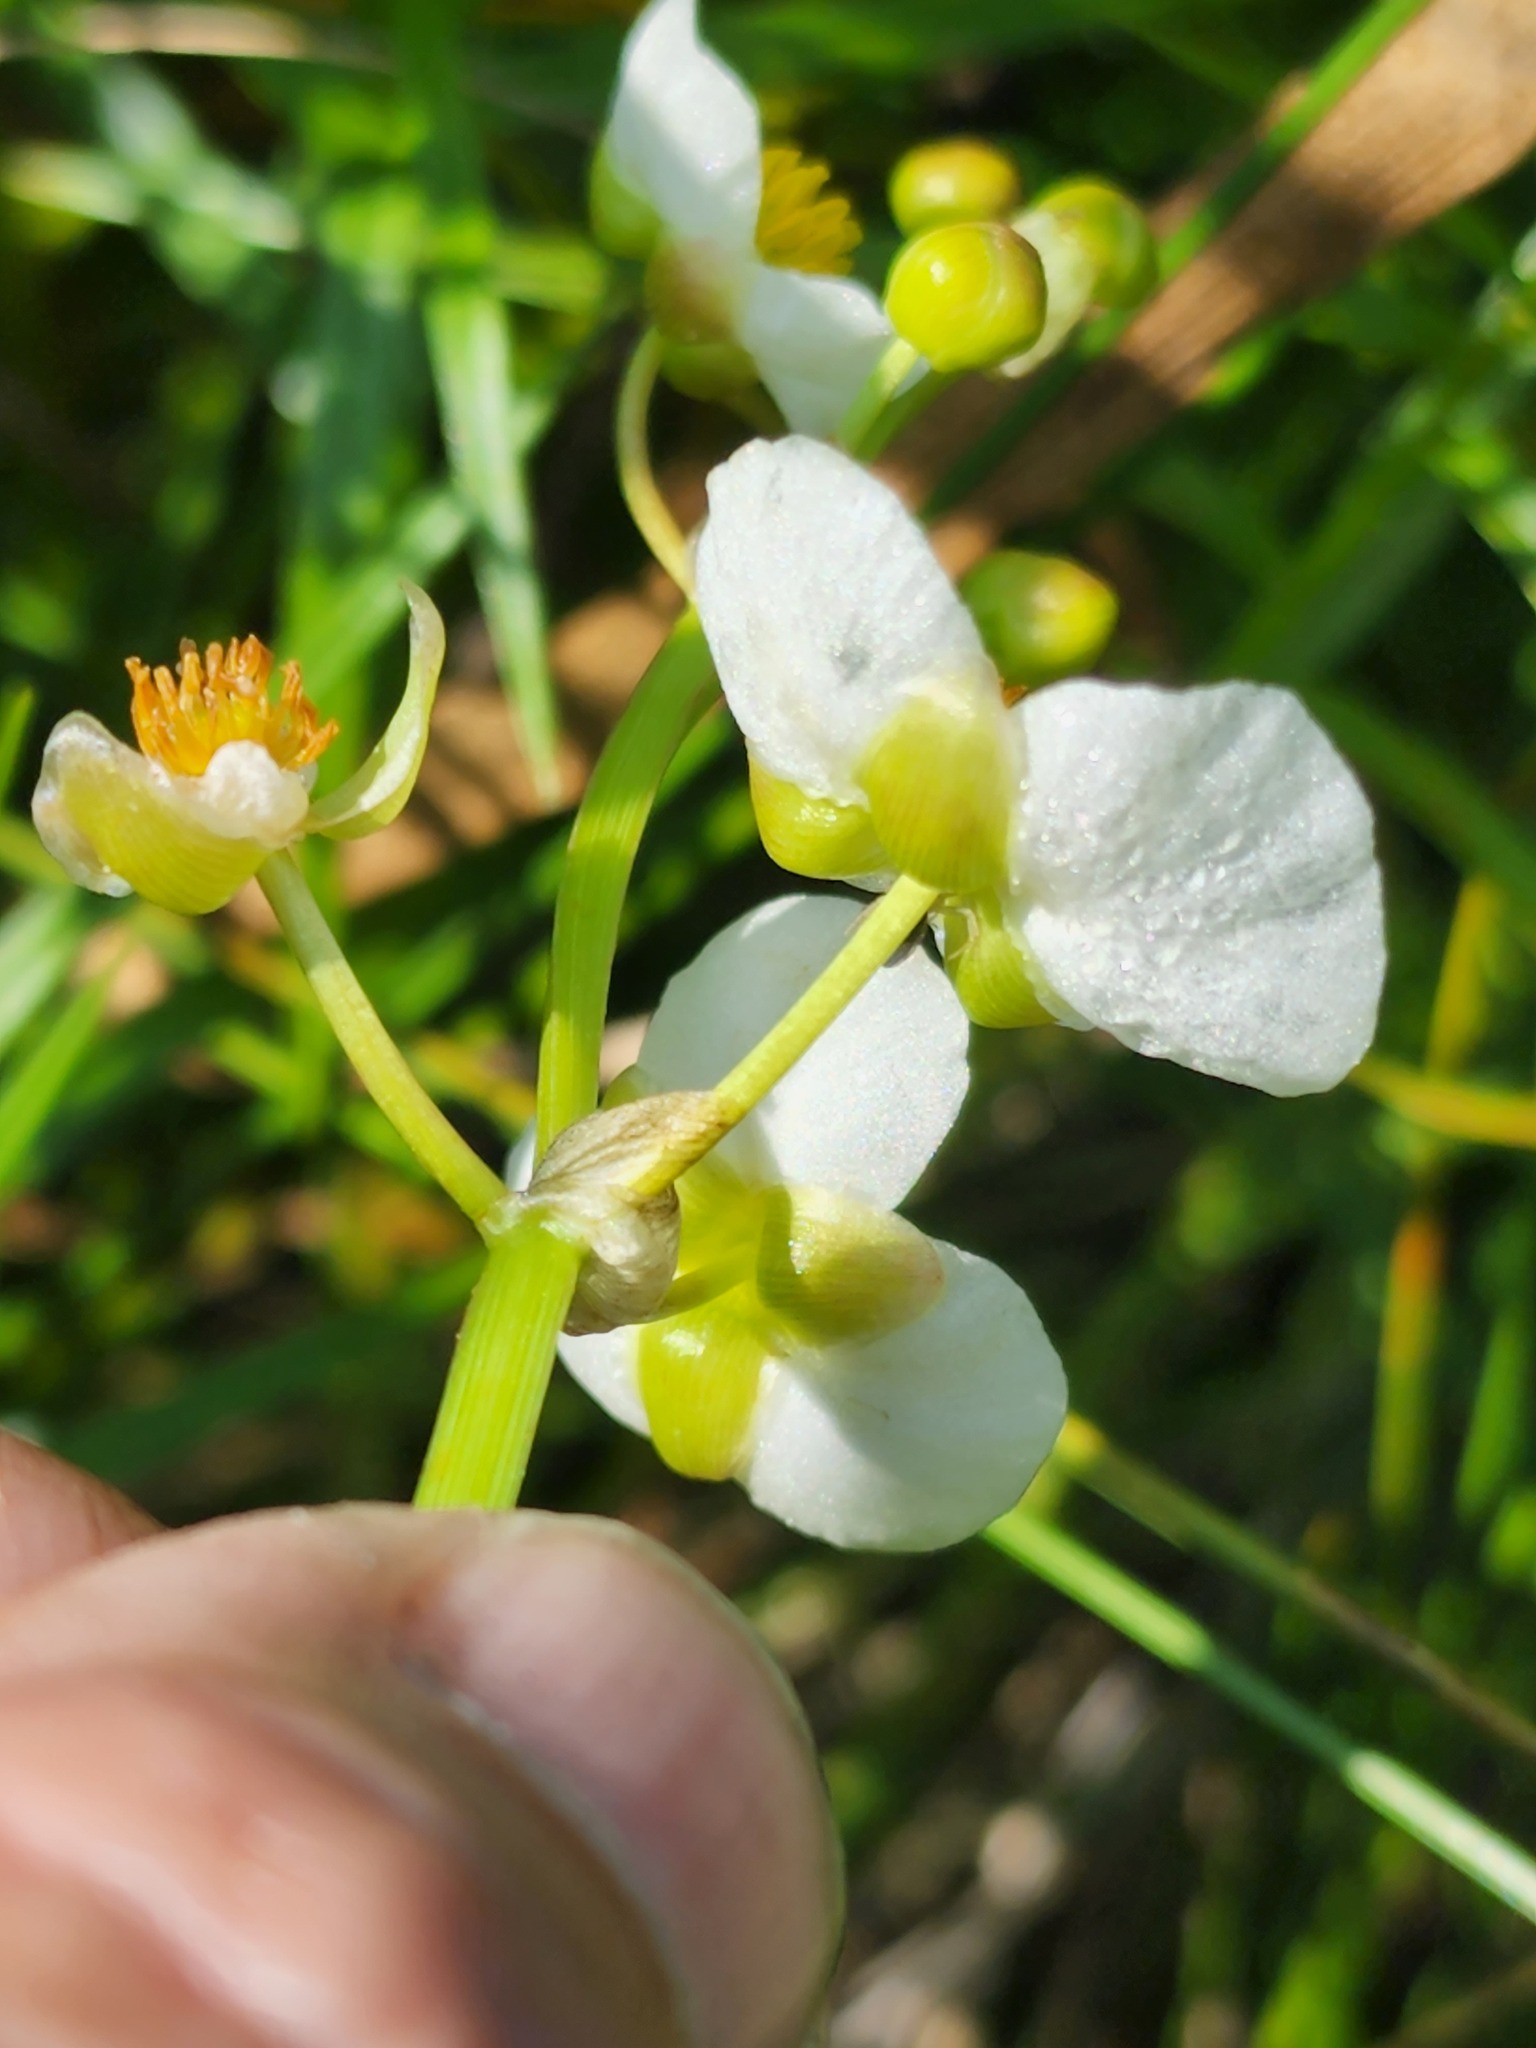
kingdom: Plantae
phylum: Tracheophyta
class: Liliopsida
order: Alismatales
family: Alismataceae
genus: Sagittaria
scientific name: Sagittaria latifolia
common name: Duck-potato
